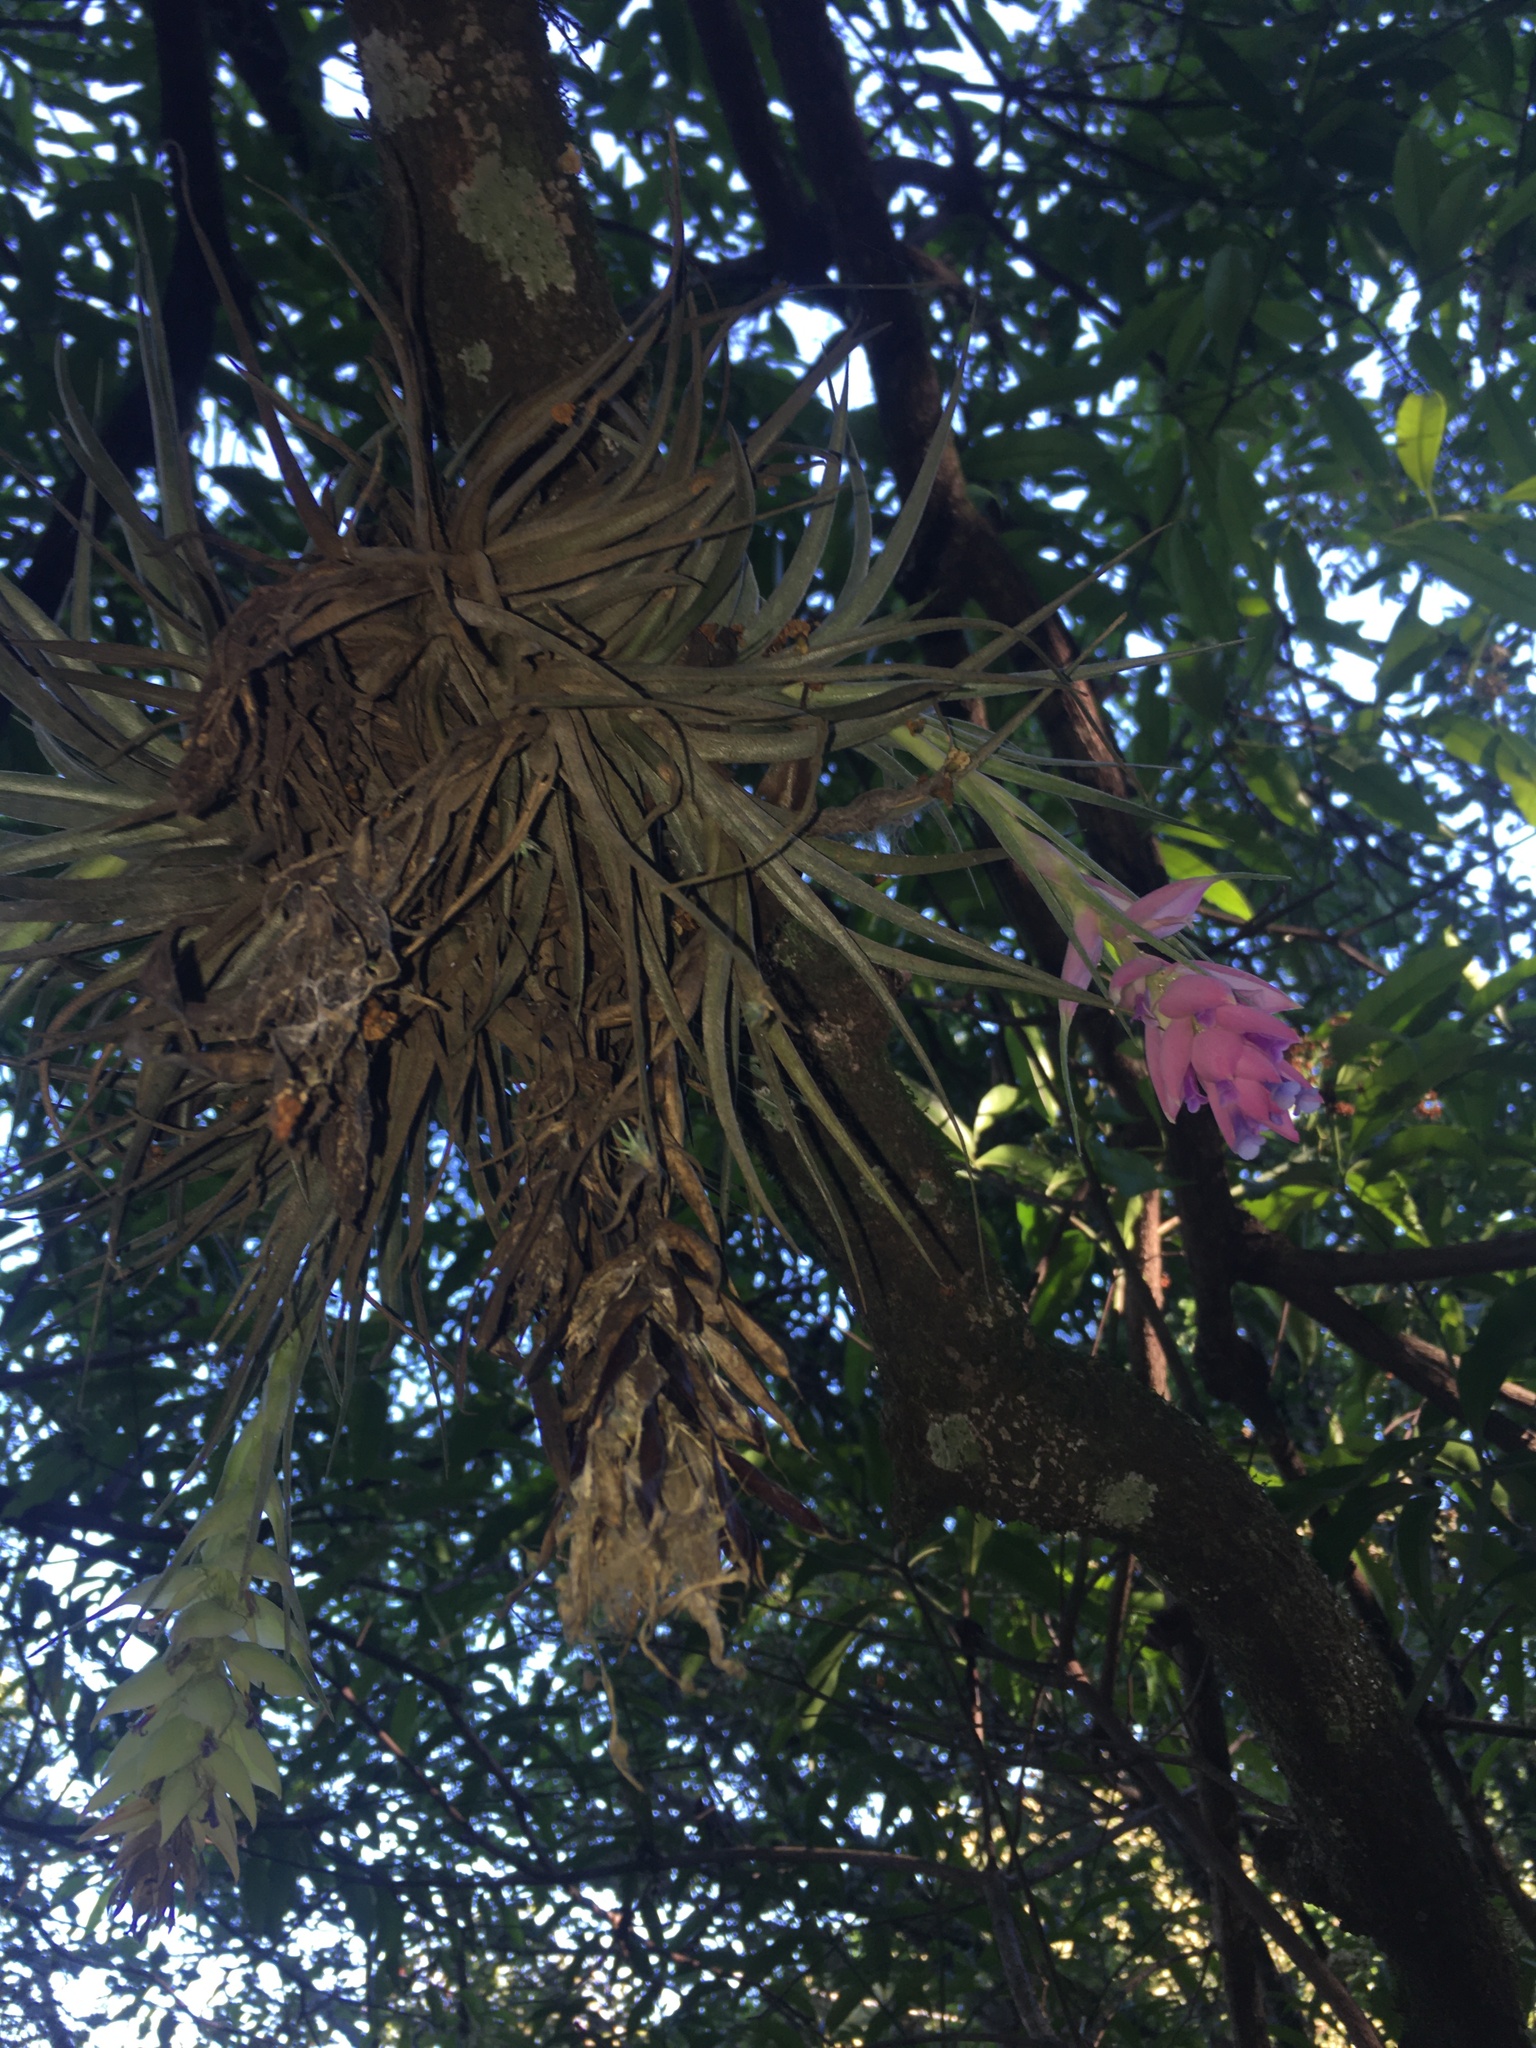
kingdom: Plantae
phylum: Tracheophyta
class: Liliopsida
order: Poales
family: Bromeliaceae
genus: Tillandsia
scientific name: Tillandsia stricta
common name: Airplant
